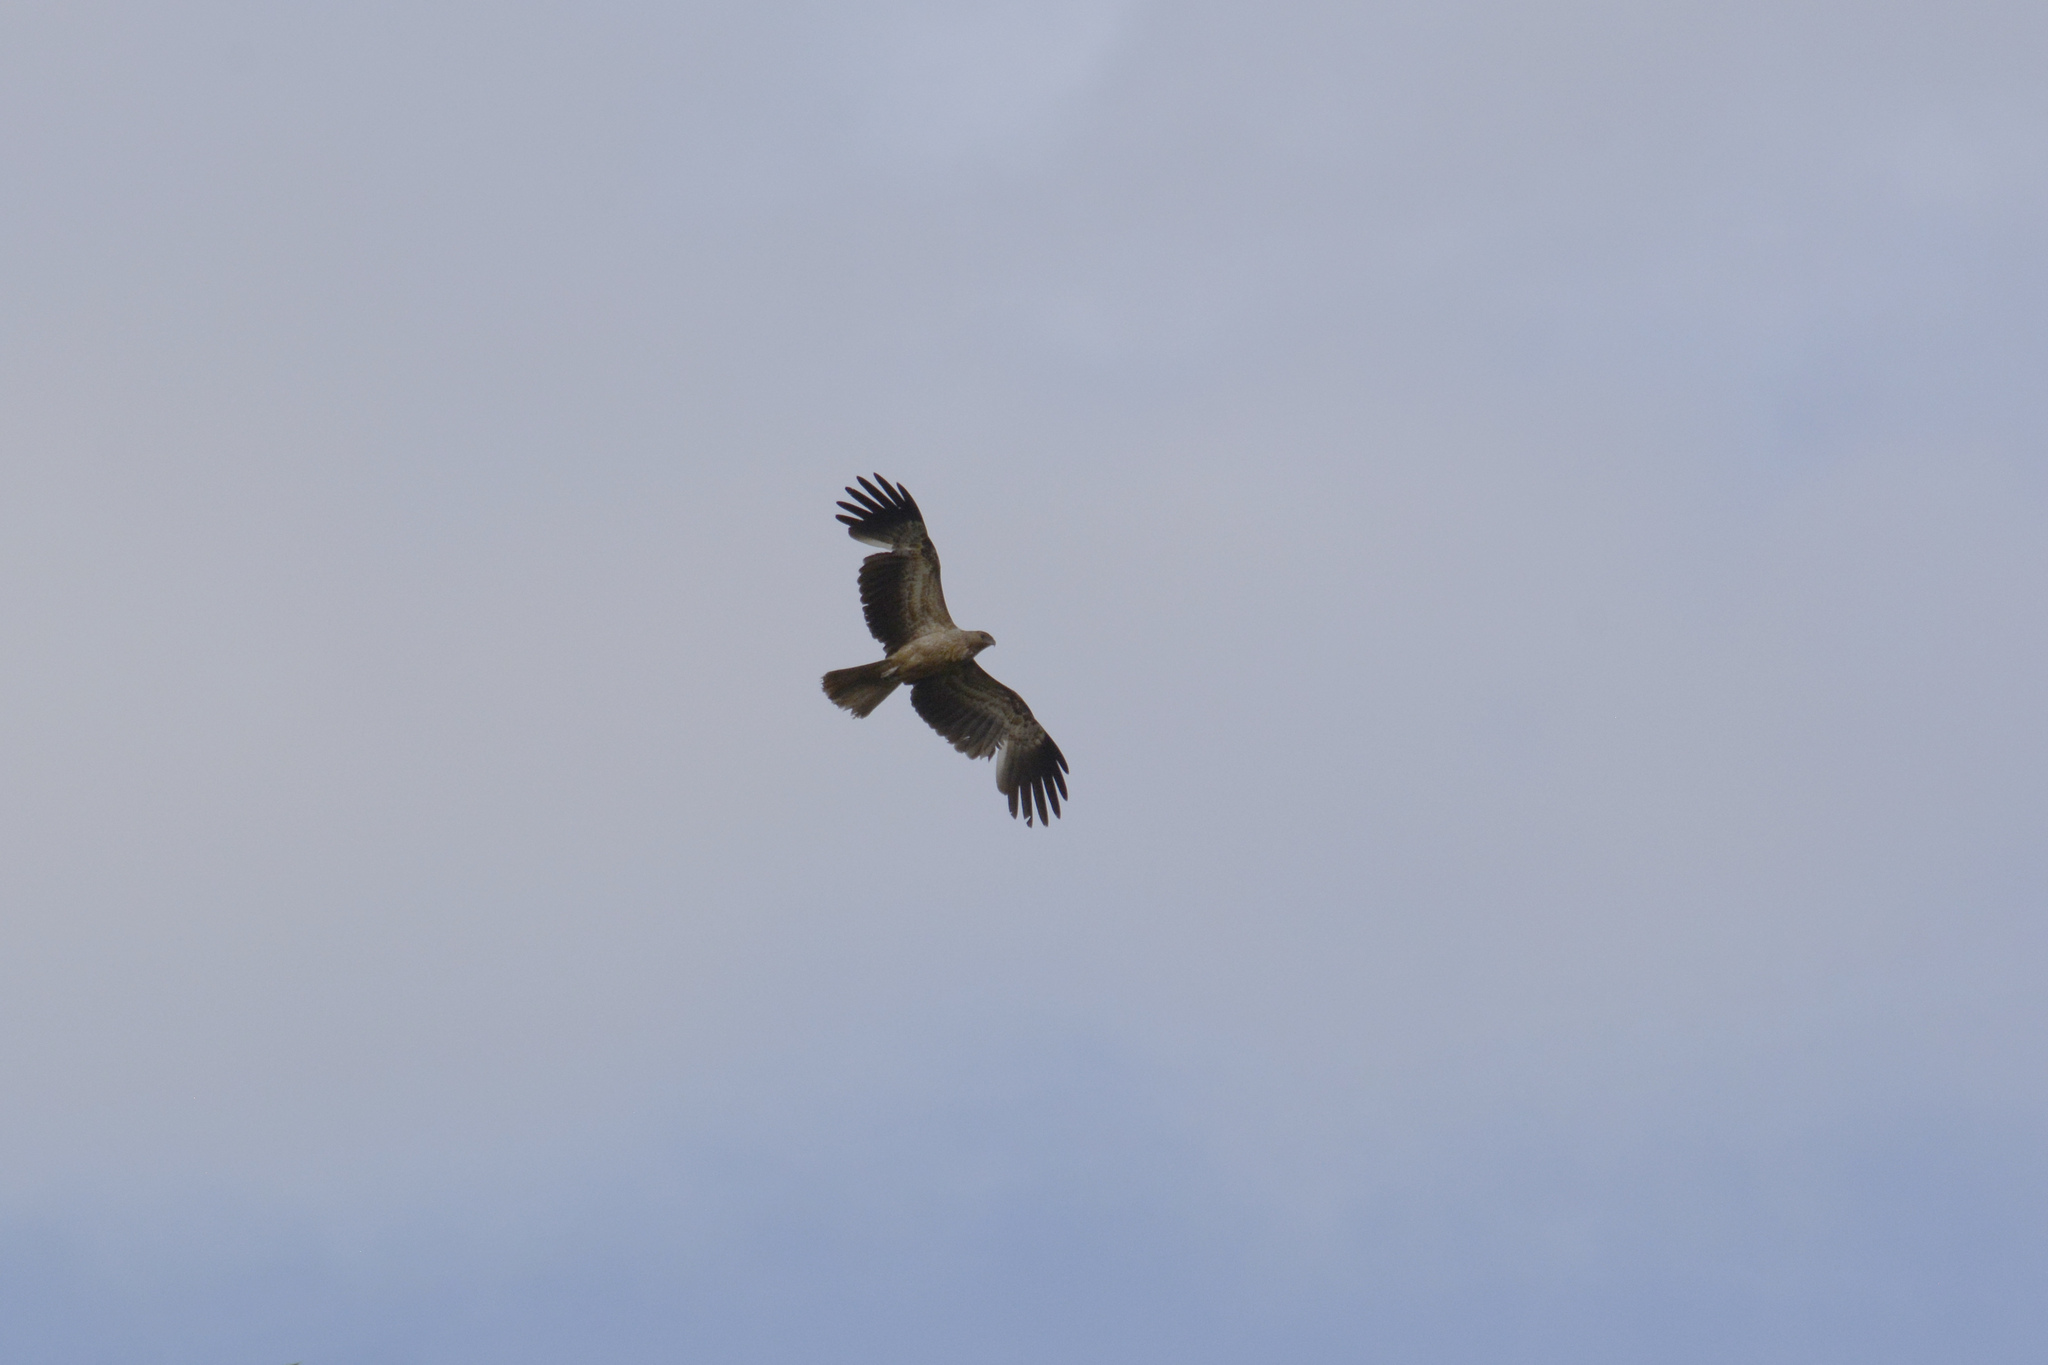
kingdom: Animalia
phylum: Chordata
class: Aves
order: Accipitriformes
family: Accipitridae
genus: Haliastur
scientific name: Haliastur sphenurus
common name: Whistling kite
